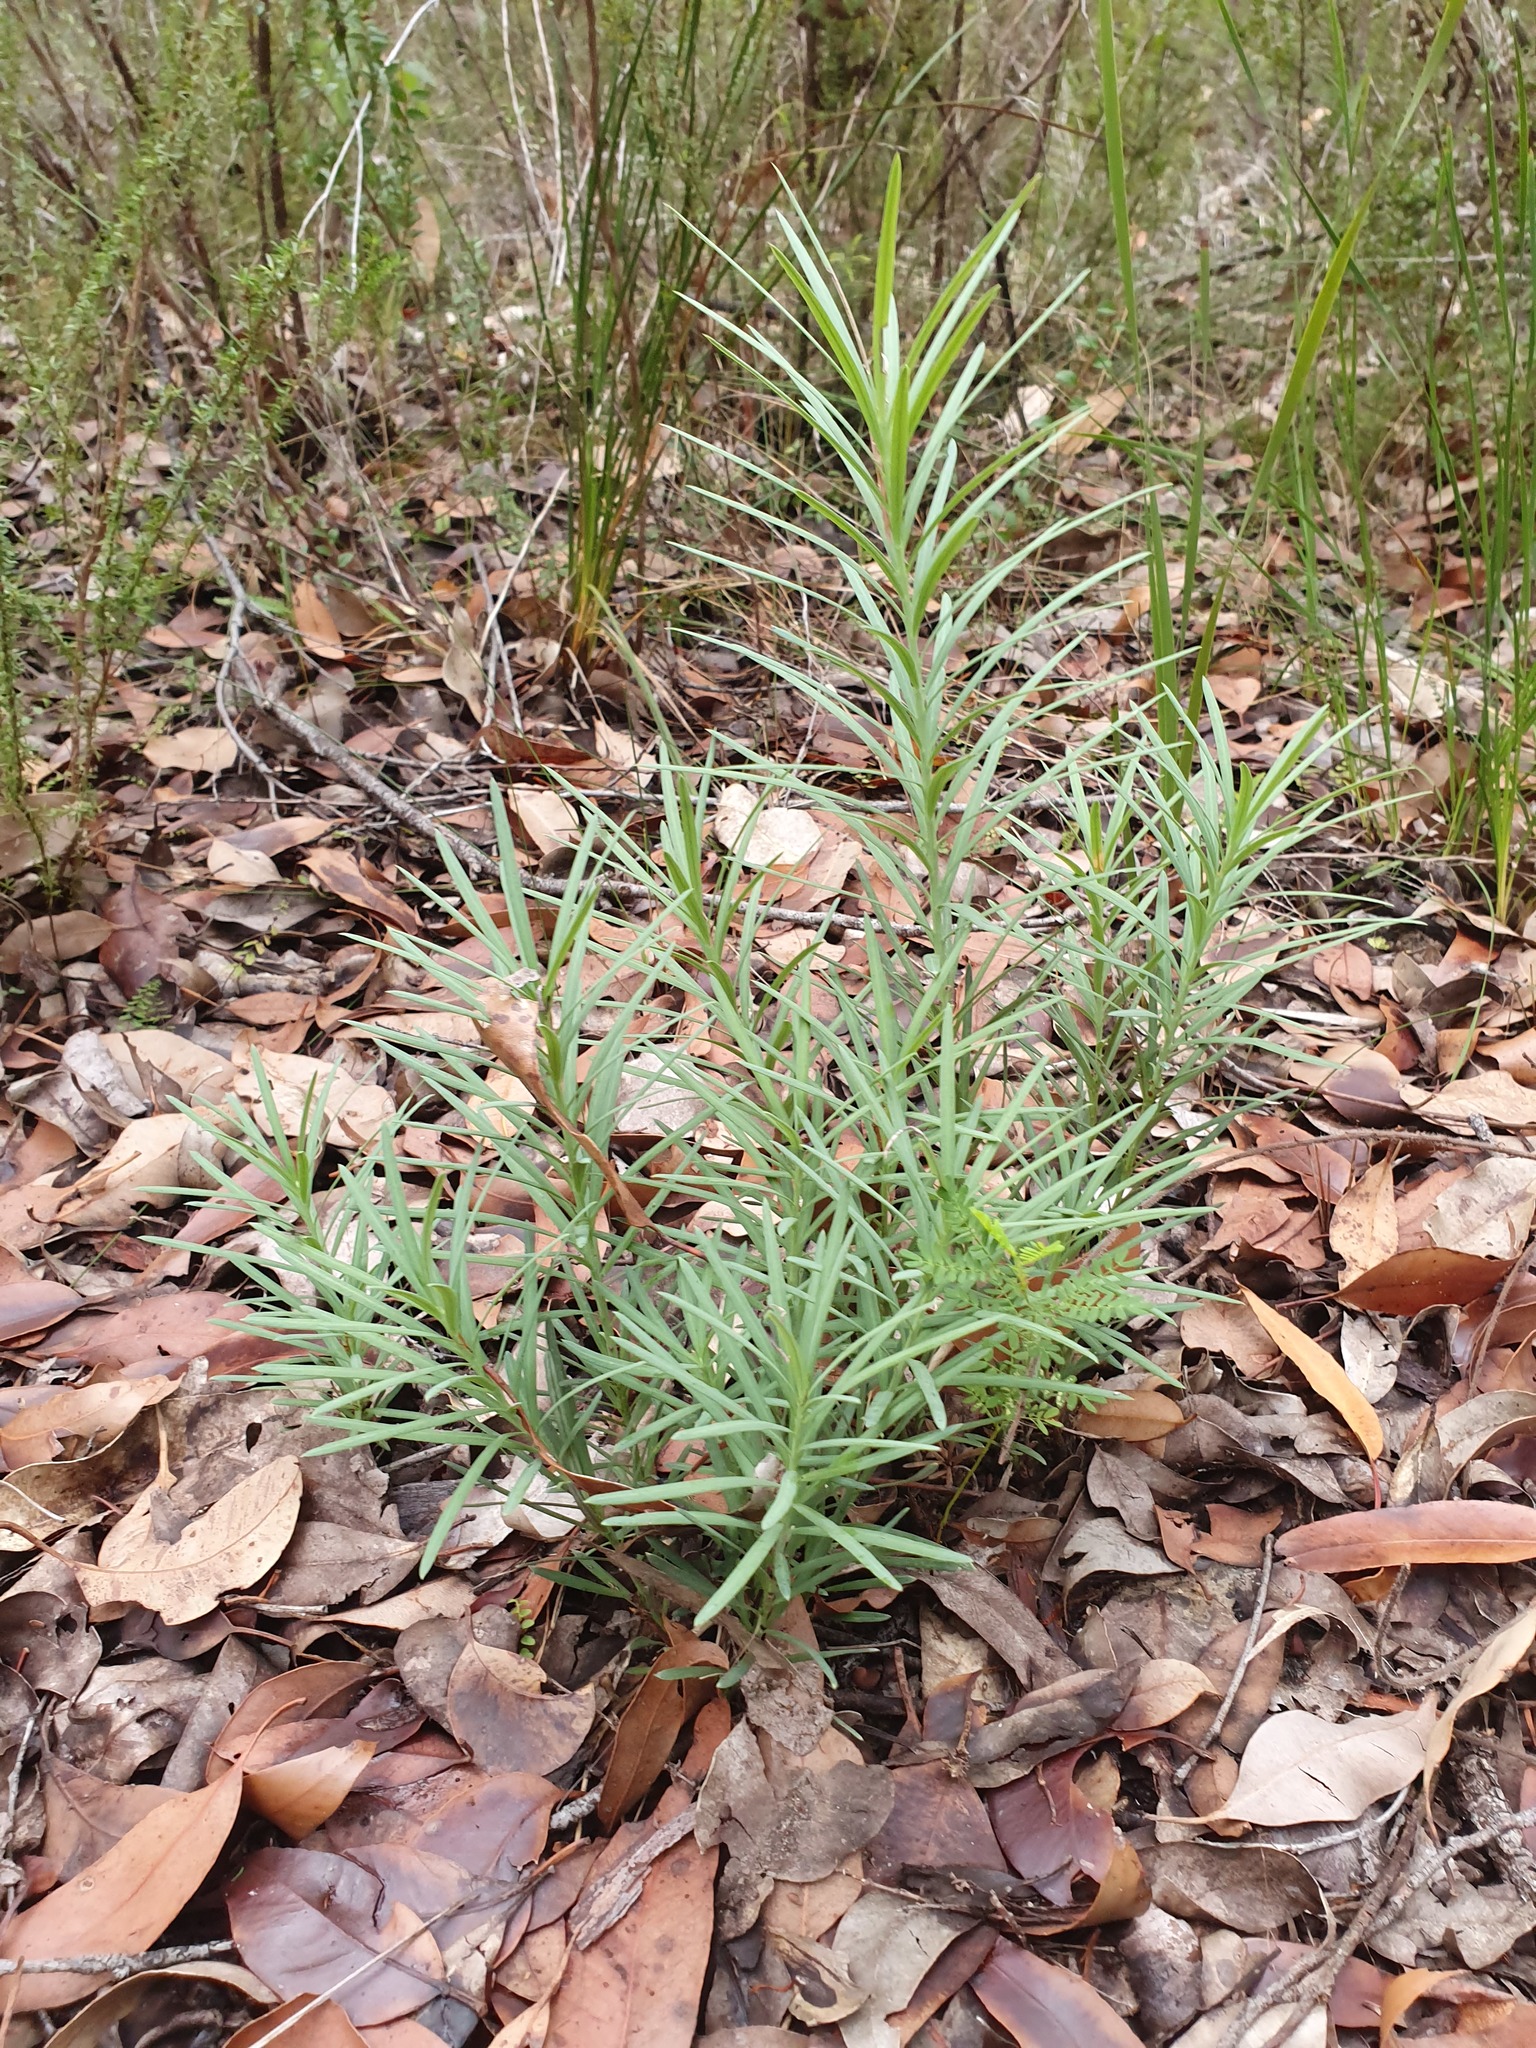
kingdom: Plantae
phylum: Tracheophyta
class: Pinopsida
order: Pinales
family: Podocarpaceae
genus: Podocarpus
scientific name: Podocarpus drouynianus
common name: Emu berry
